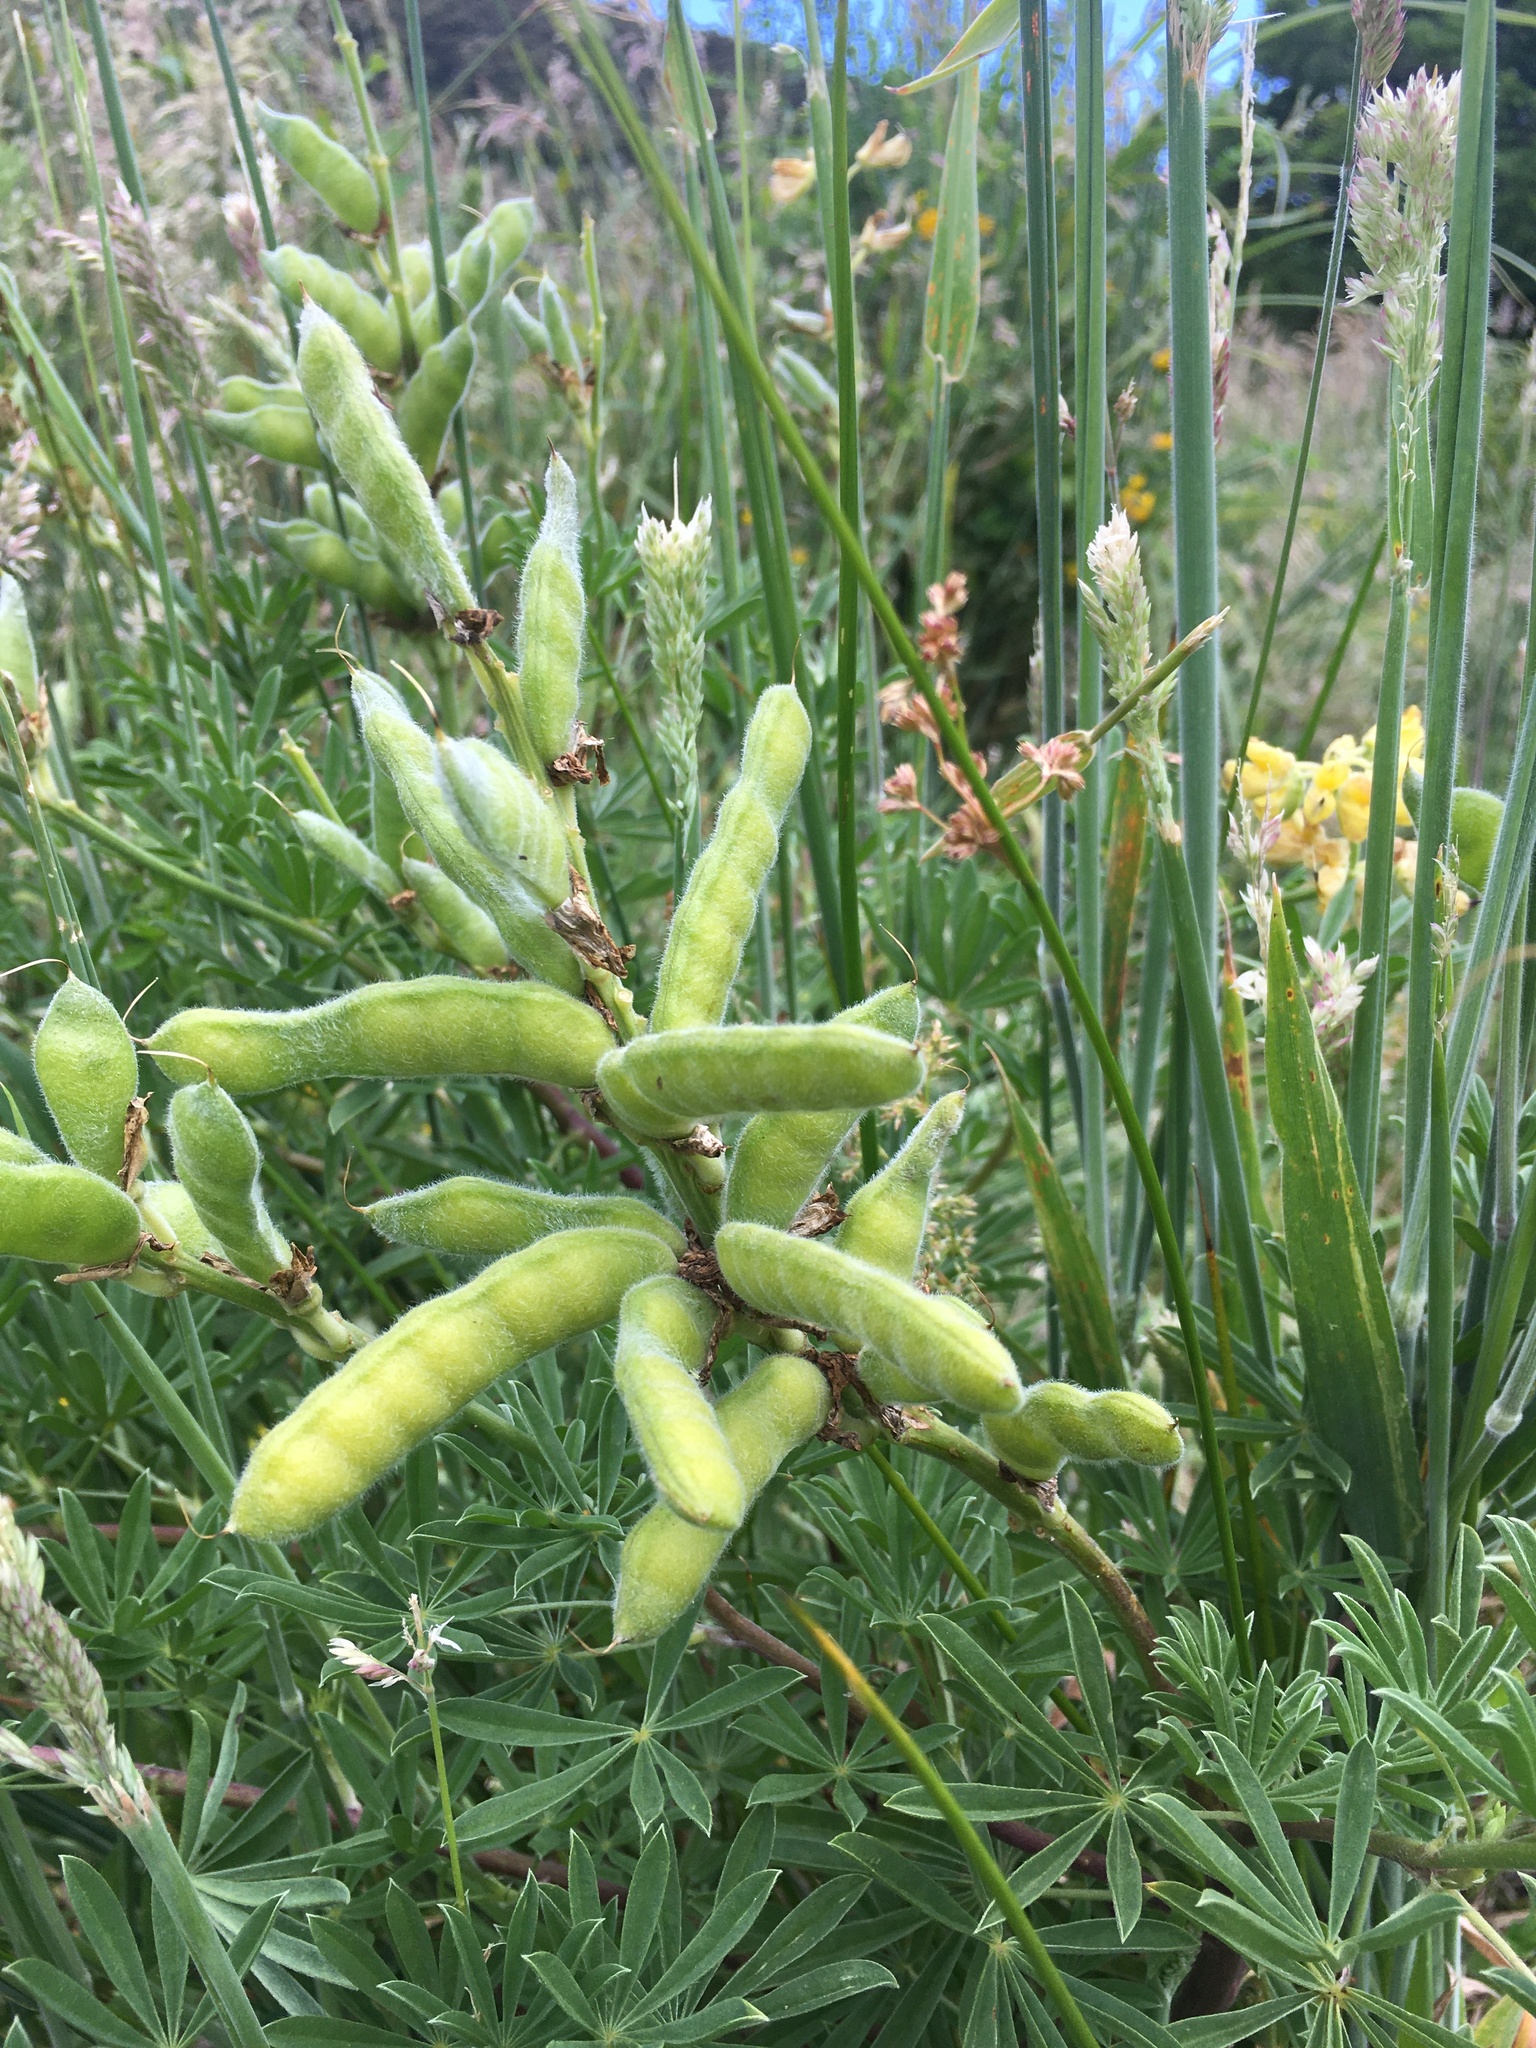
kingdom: Plantae
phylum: Tracheophyta
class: Magnoliopsida
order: Fabales
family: Fabaceae
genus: Lupinus
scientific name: Lupinus arboreus
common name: Yellow bush lupine
